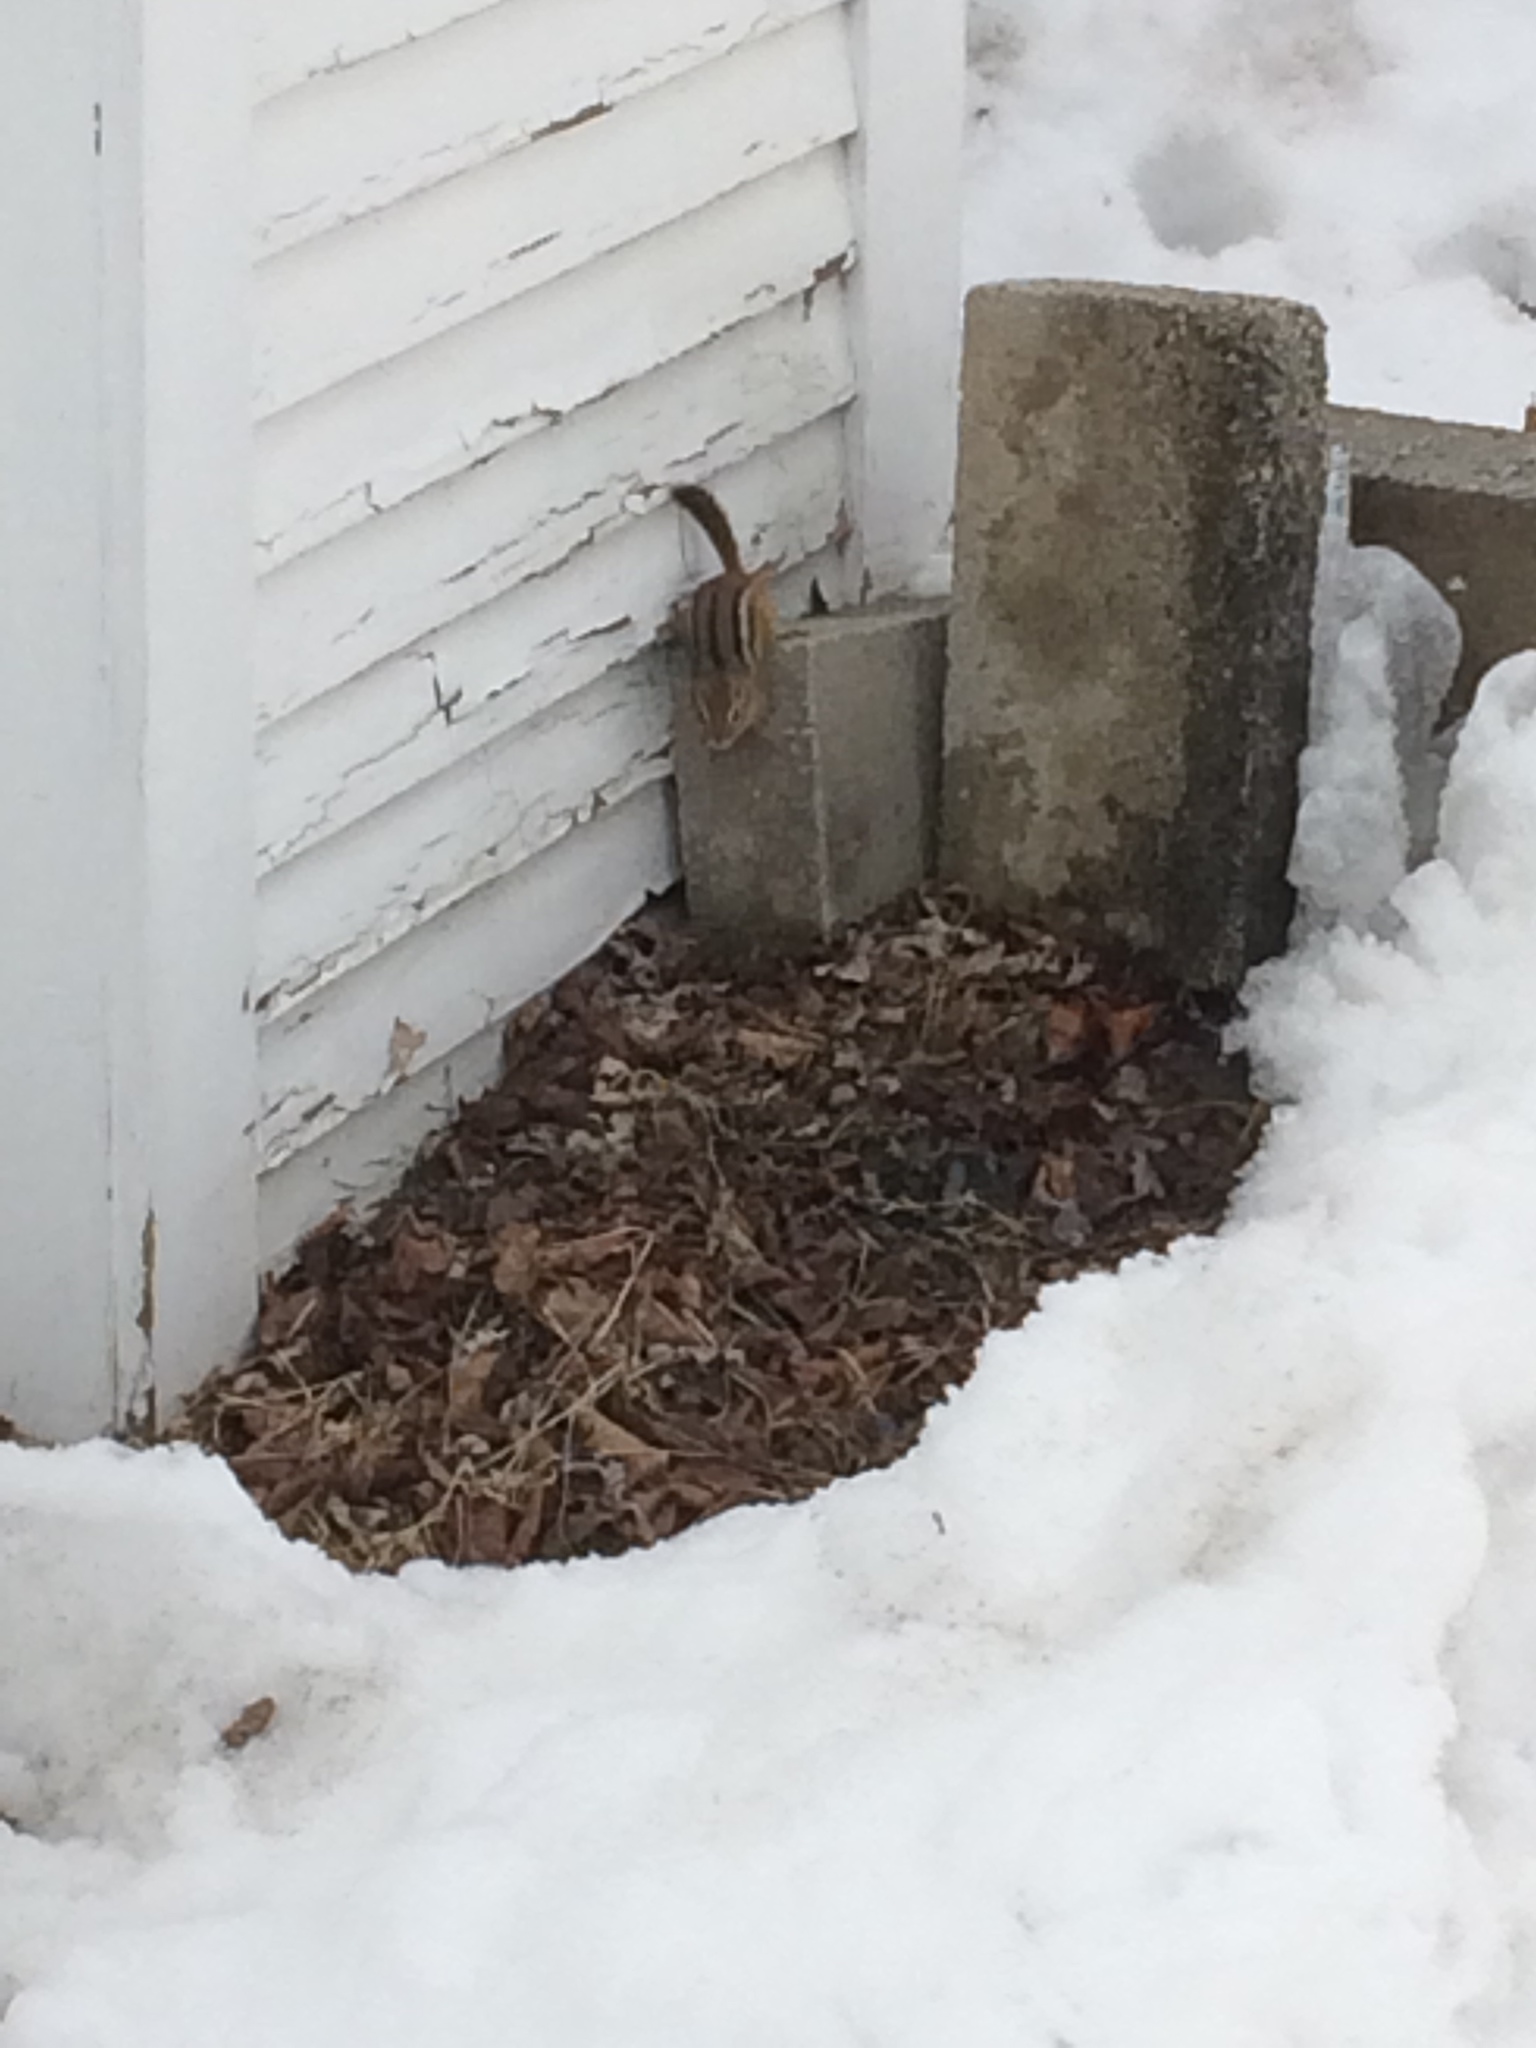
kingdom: Animalia
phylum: Chordata
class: Mammalia
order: Rodentia
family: Sciuridae
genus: Tamias
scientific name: Tamias striatus
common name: Eastern chipmunk
